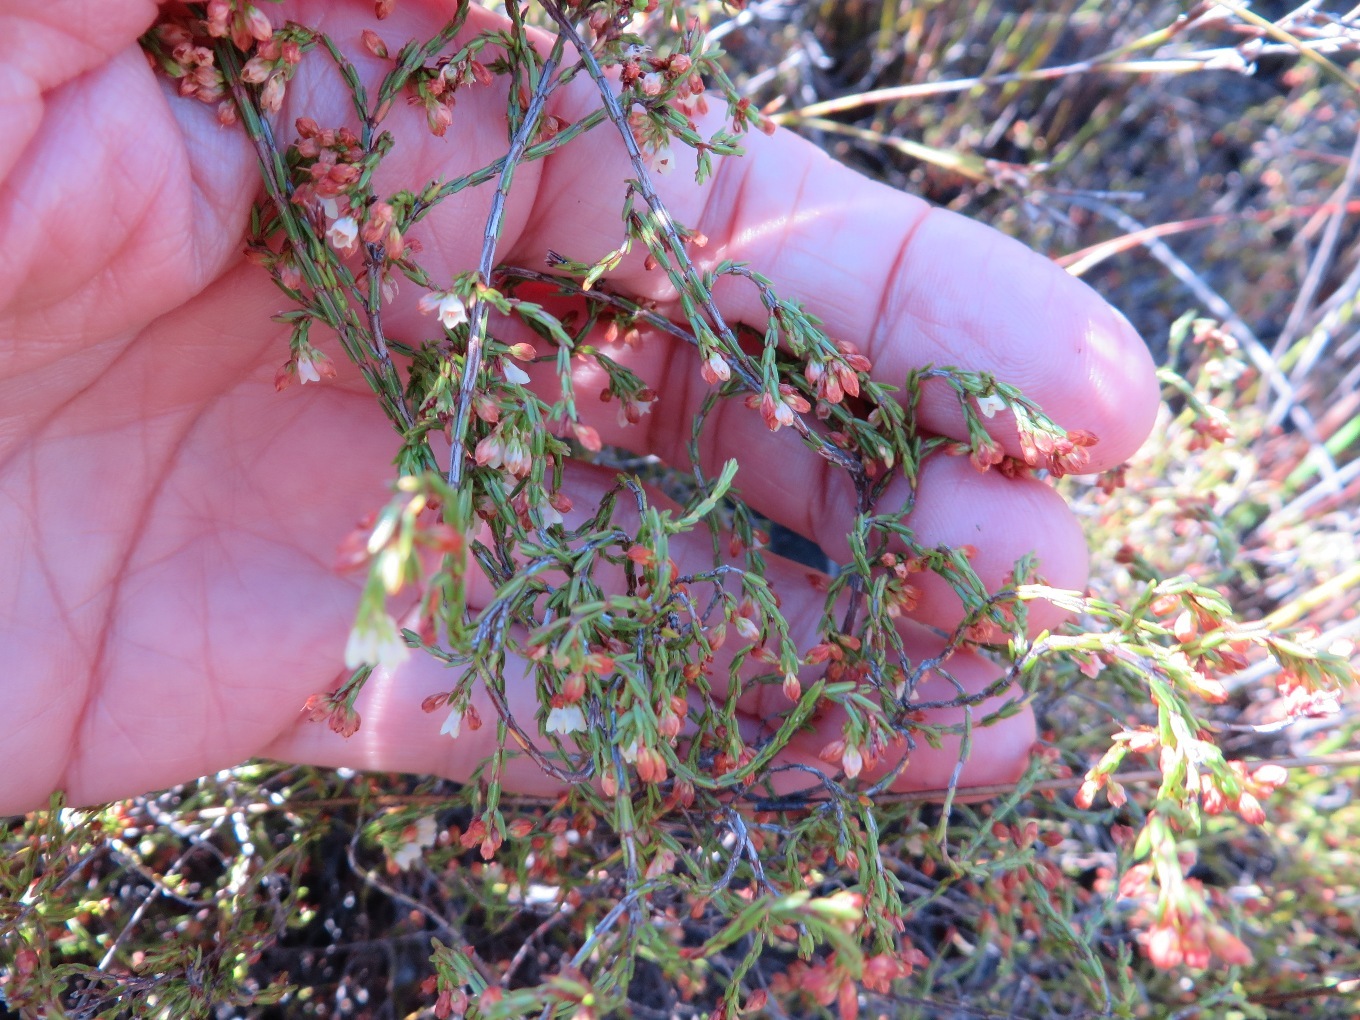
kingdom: Plantae
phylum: Tracheophyta
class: Magnoliopsida
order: Ericales
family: Ericaceae
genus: Erica
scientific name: Erica multiflexuosa
